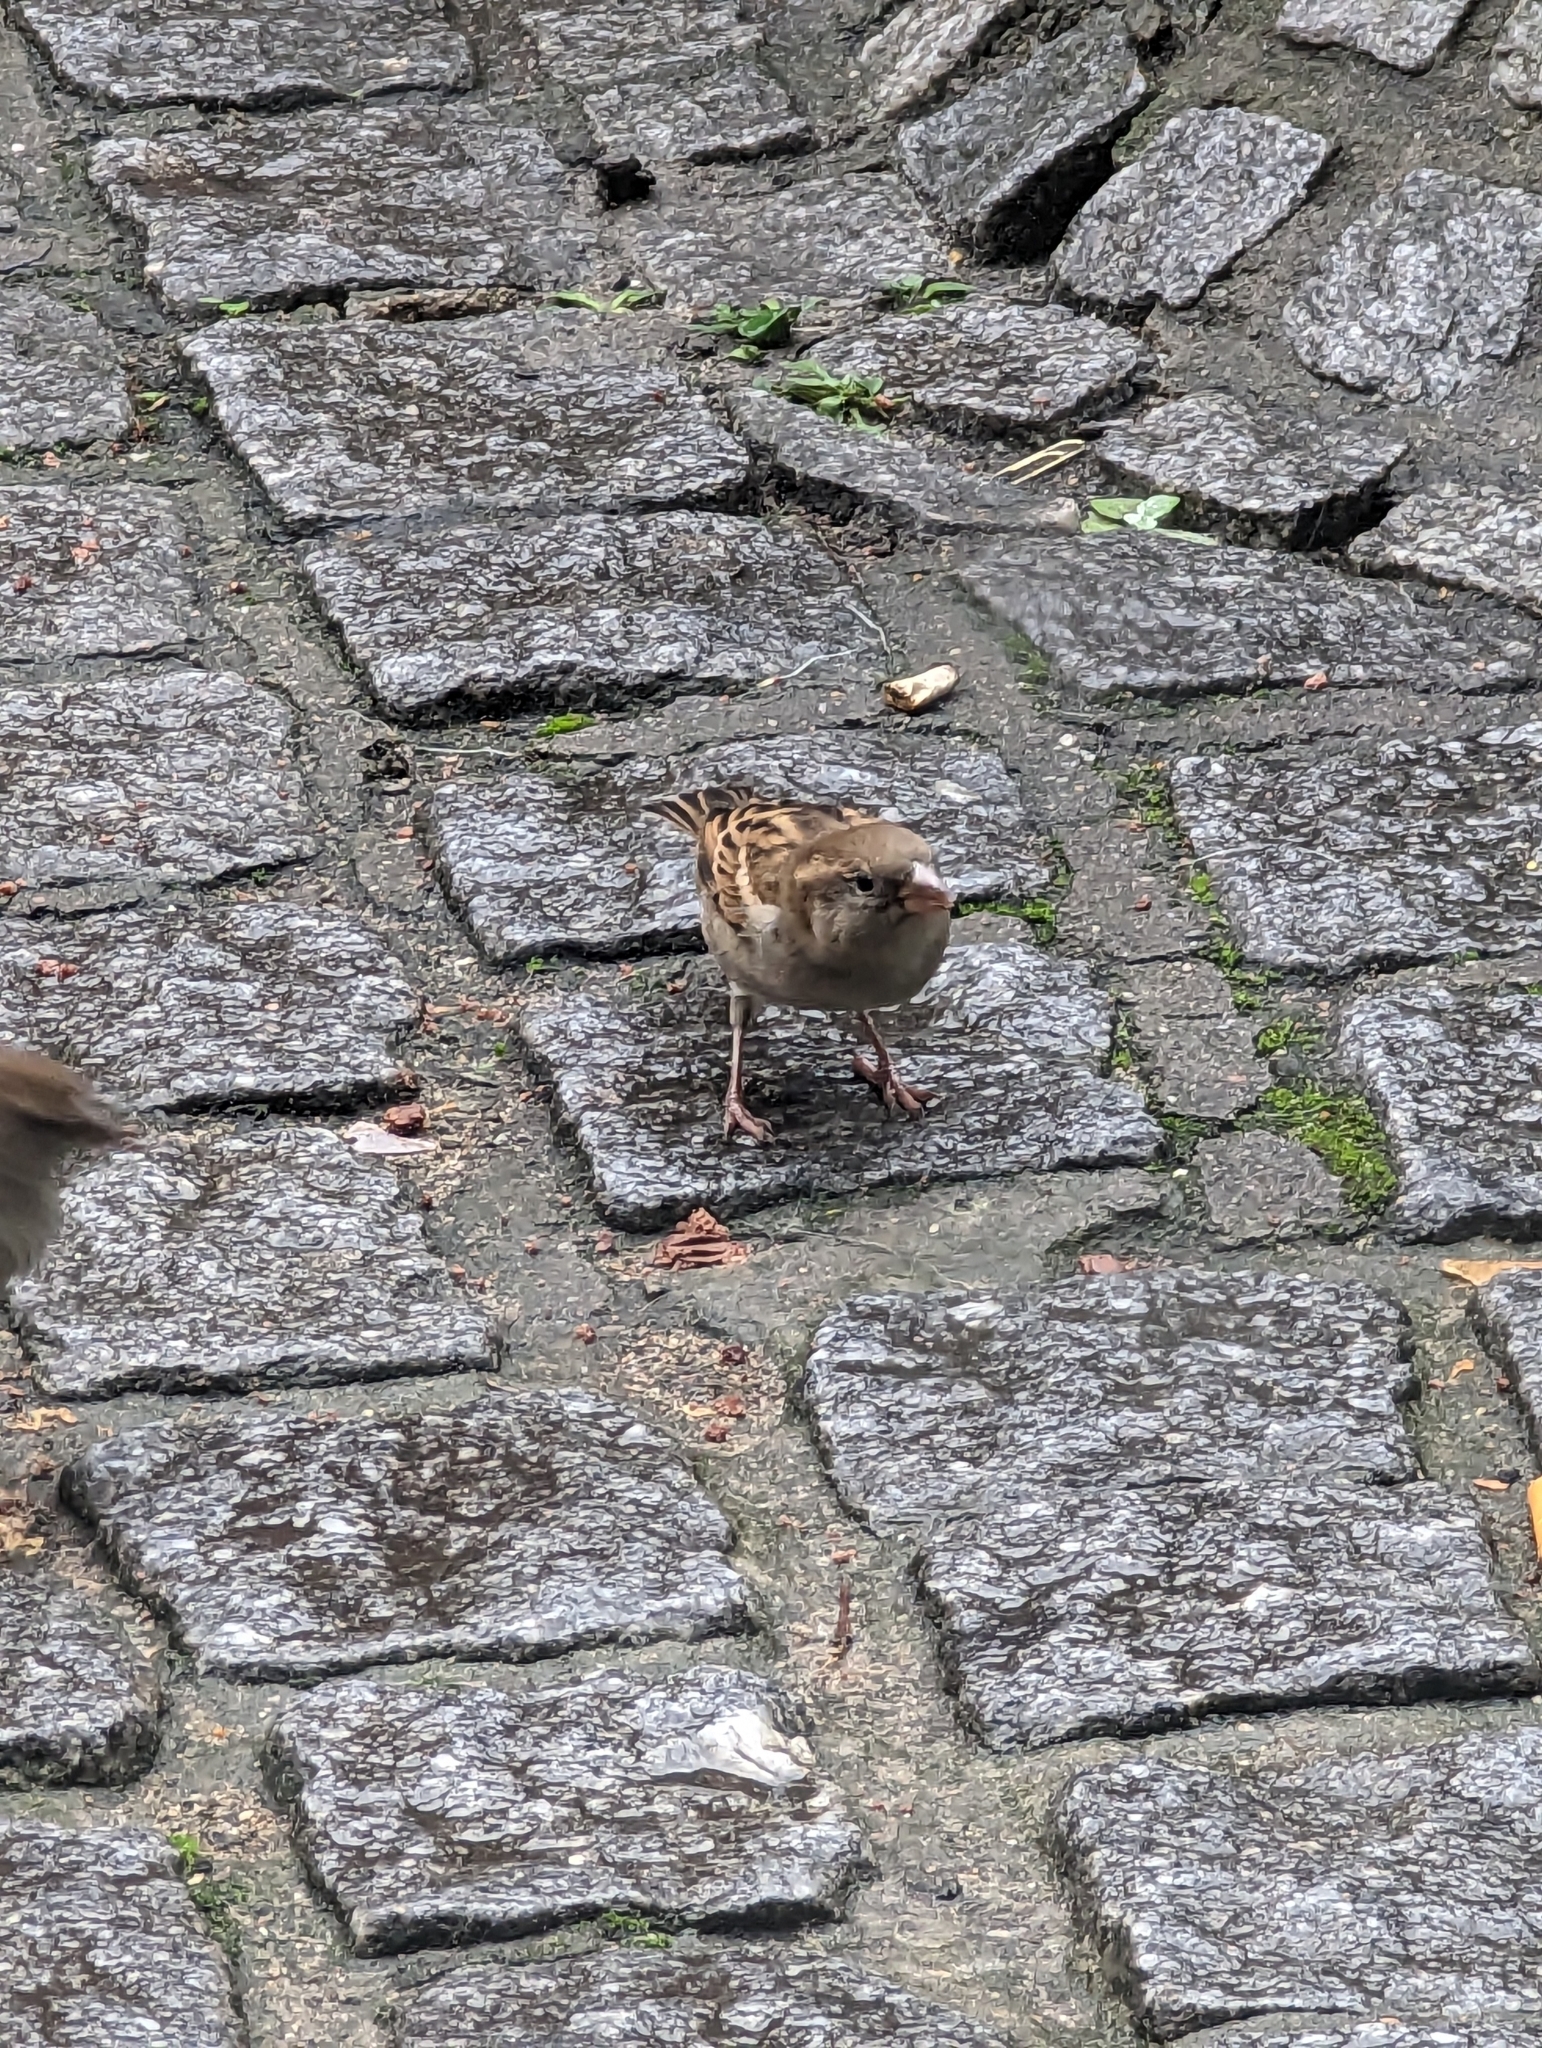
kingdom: Animalia
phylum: Chordata
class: Aves
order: Passeriformes
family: Passeridae
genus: Passer
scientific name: Passer domesticus
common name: House sparrow
